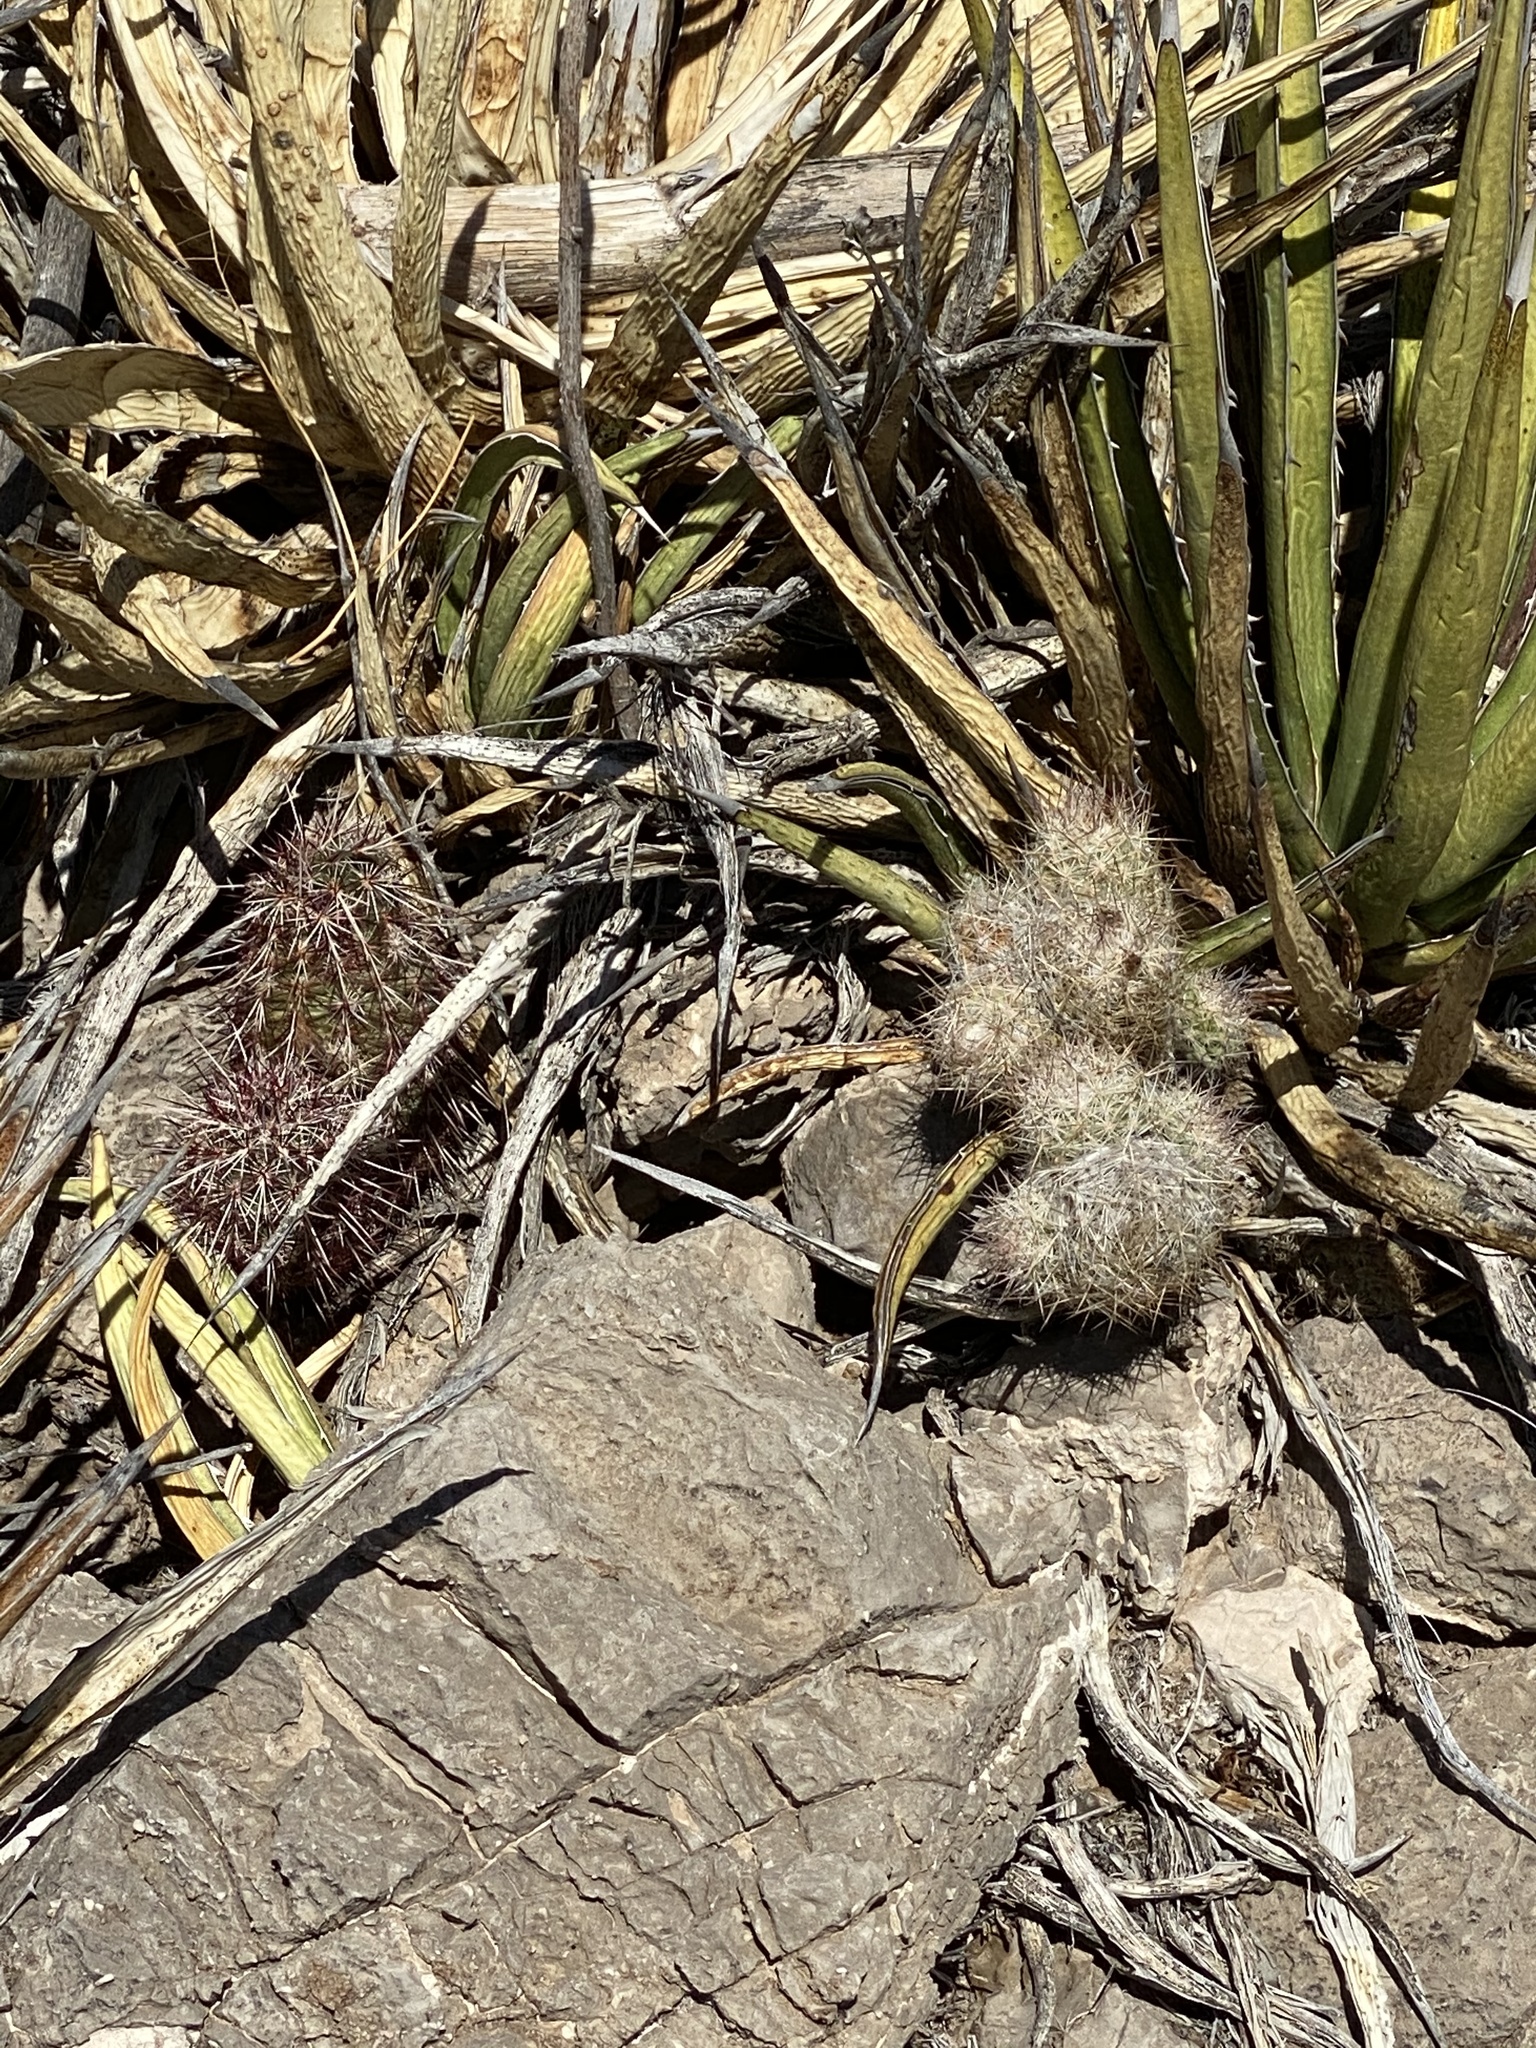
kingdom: Plantae
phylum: Tracheophyta
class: Magnoliopsida
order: Caryophyllales
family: Cactaceae
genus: Pelecyphora
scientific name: Pelecyphora tuberculosa
